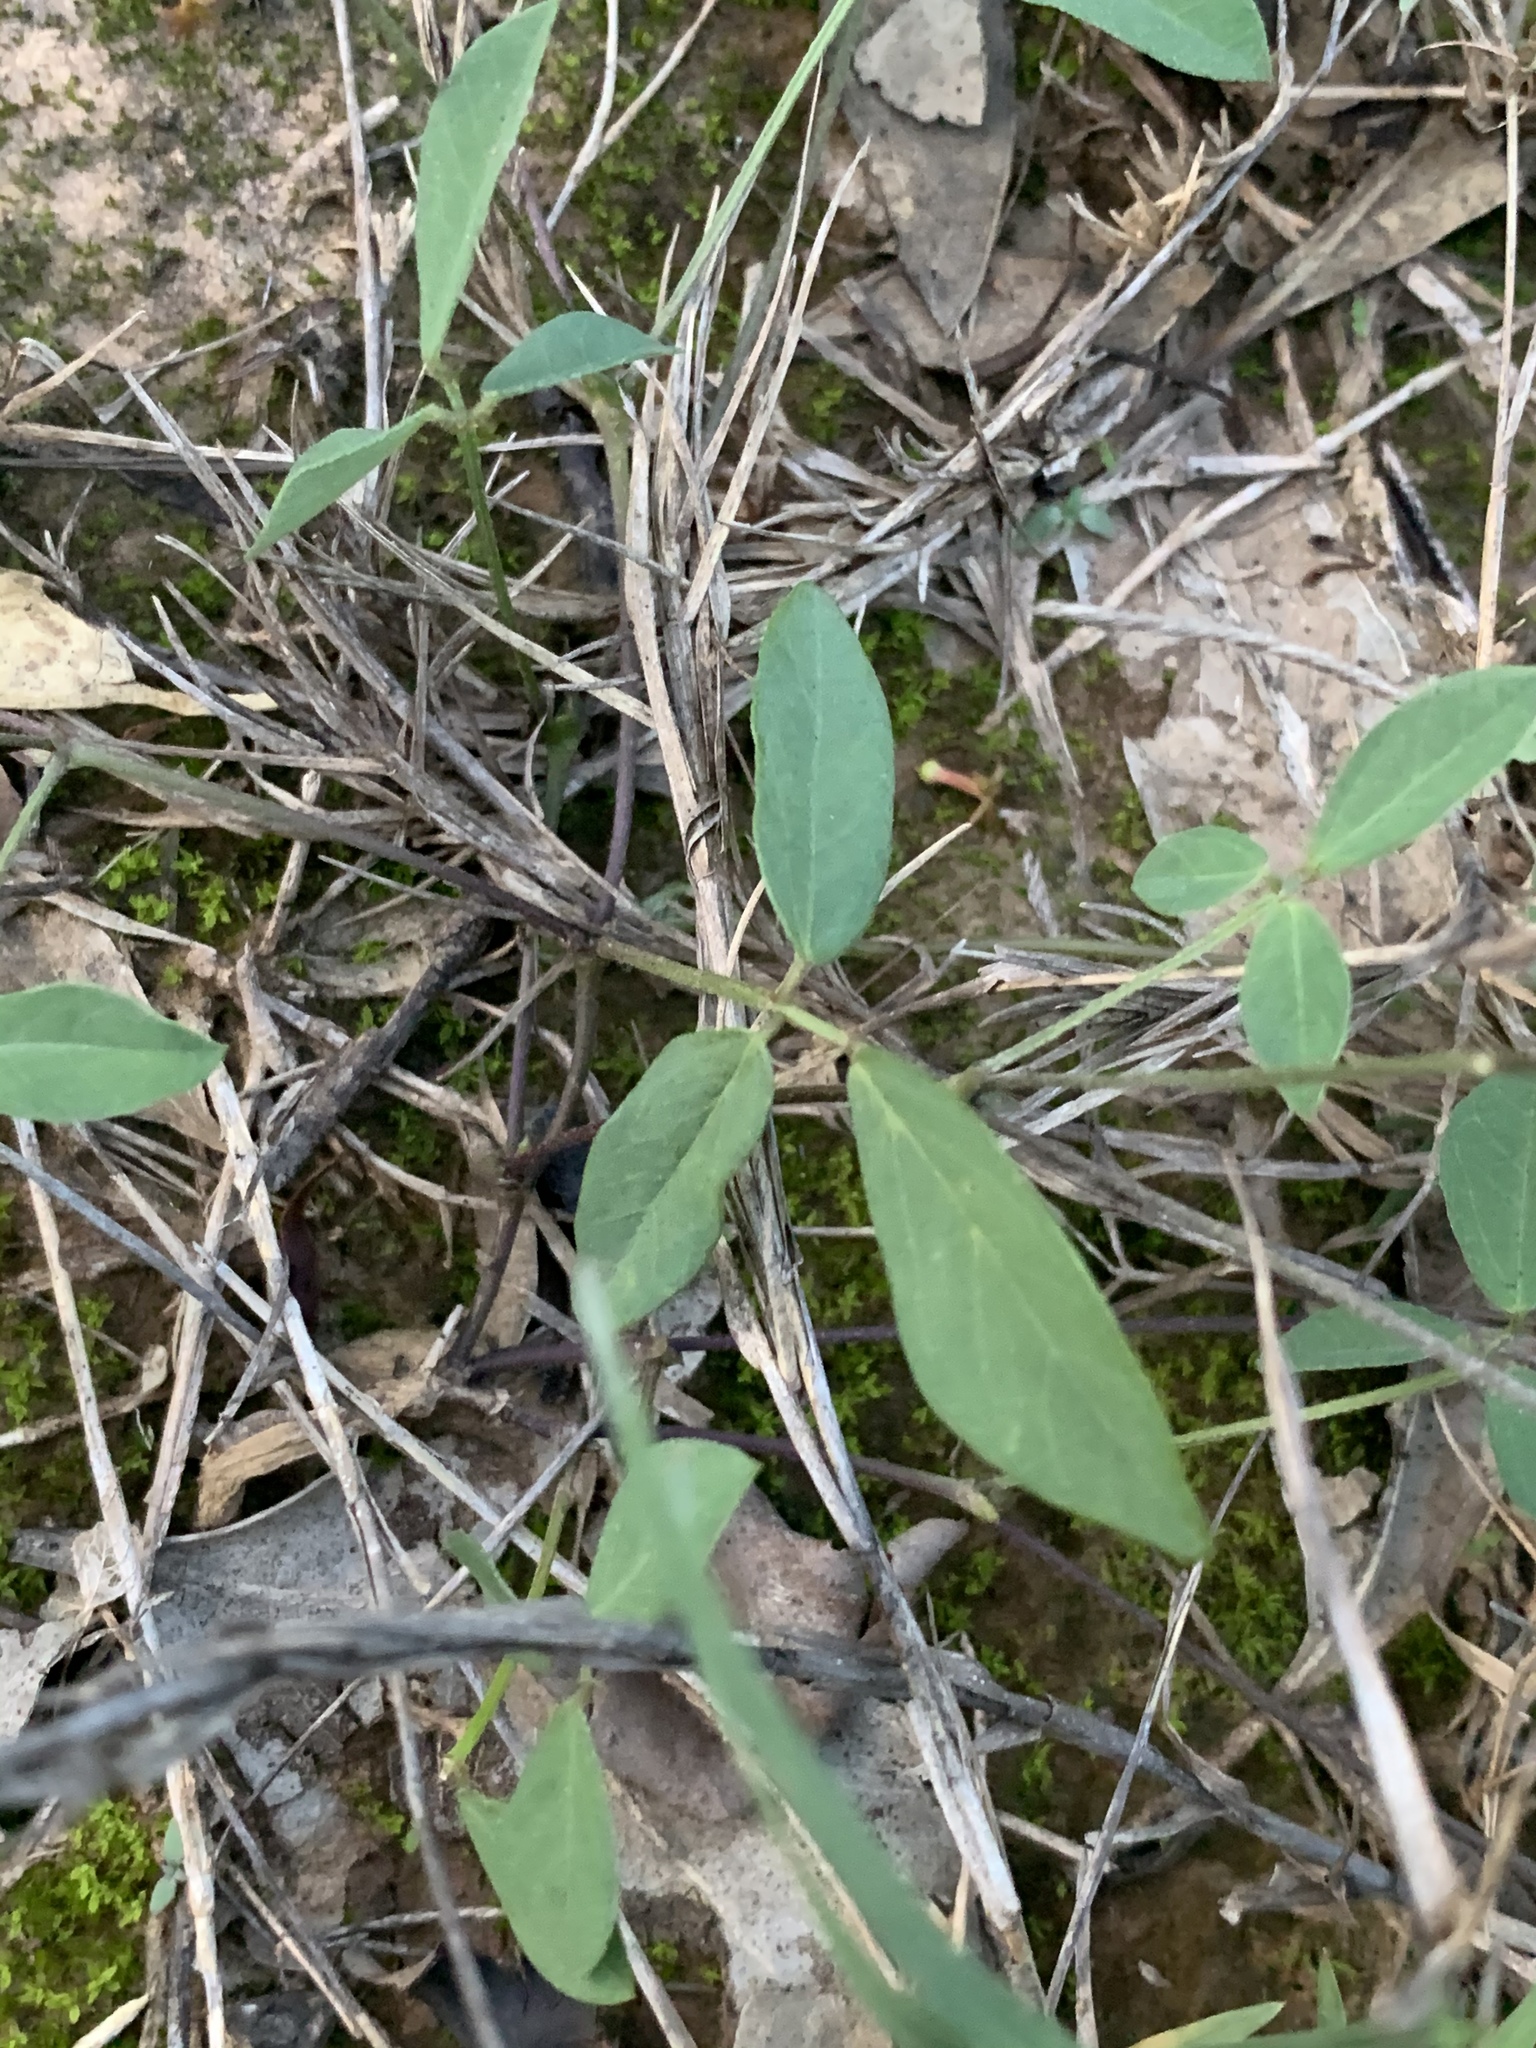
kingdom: Plantae
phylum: Tracheophyta
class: Magnoliopsida
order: Fabales
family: Fabaceae
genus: Glycine
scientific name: Glycine clandestina
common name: Twining glycine
